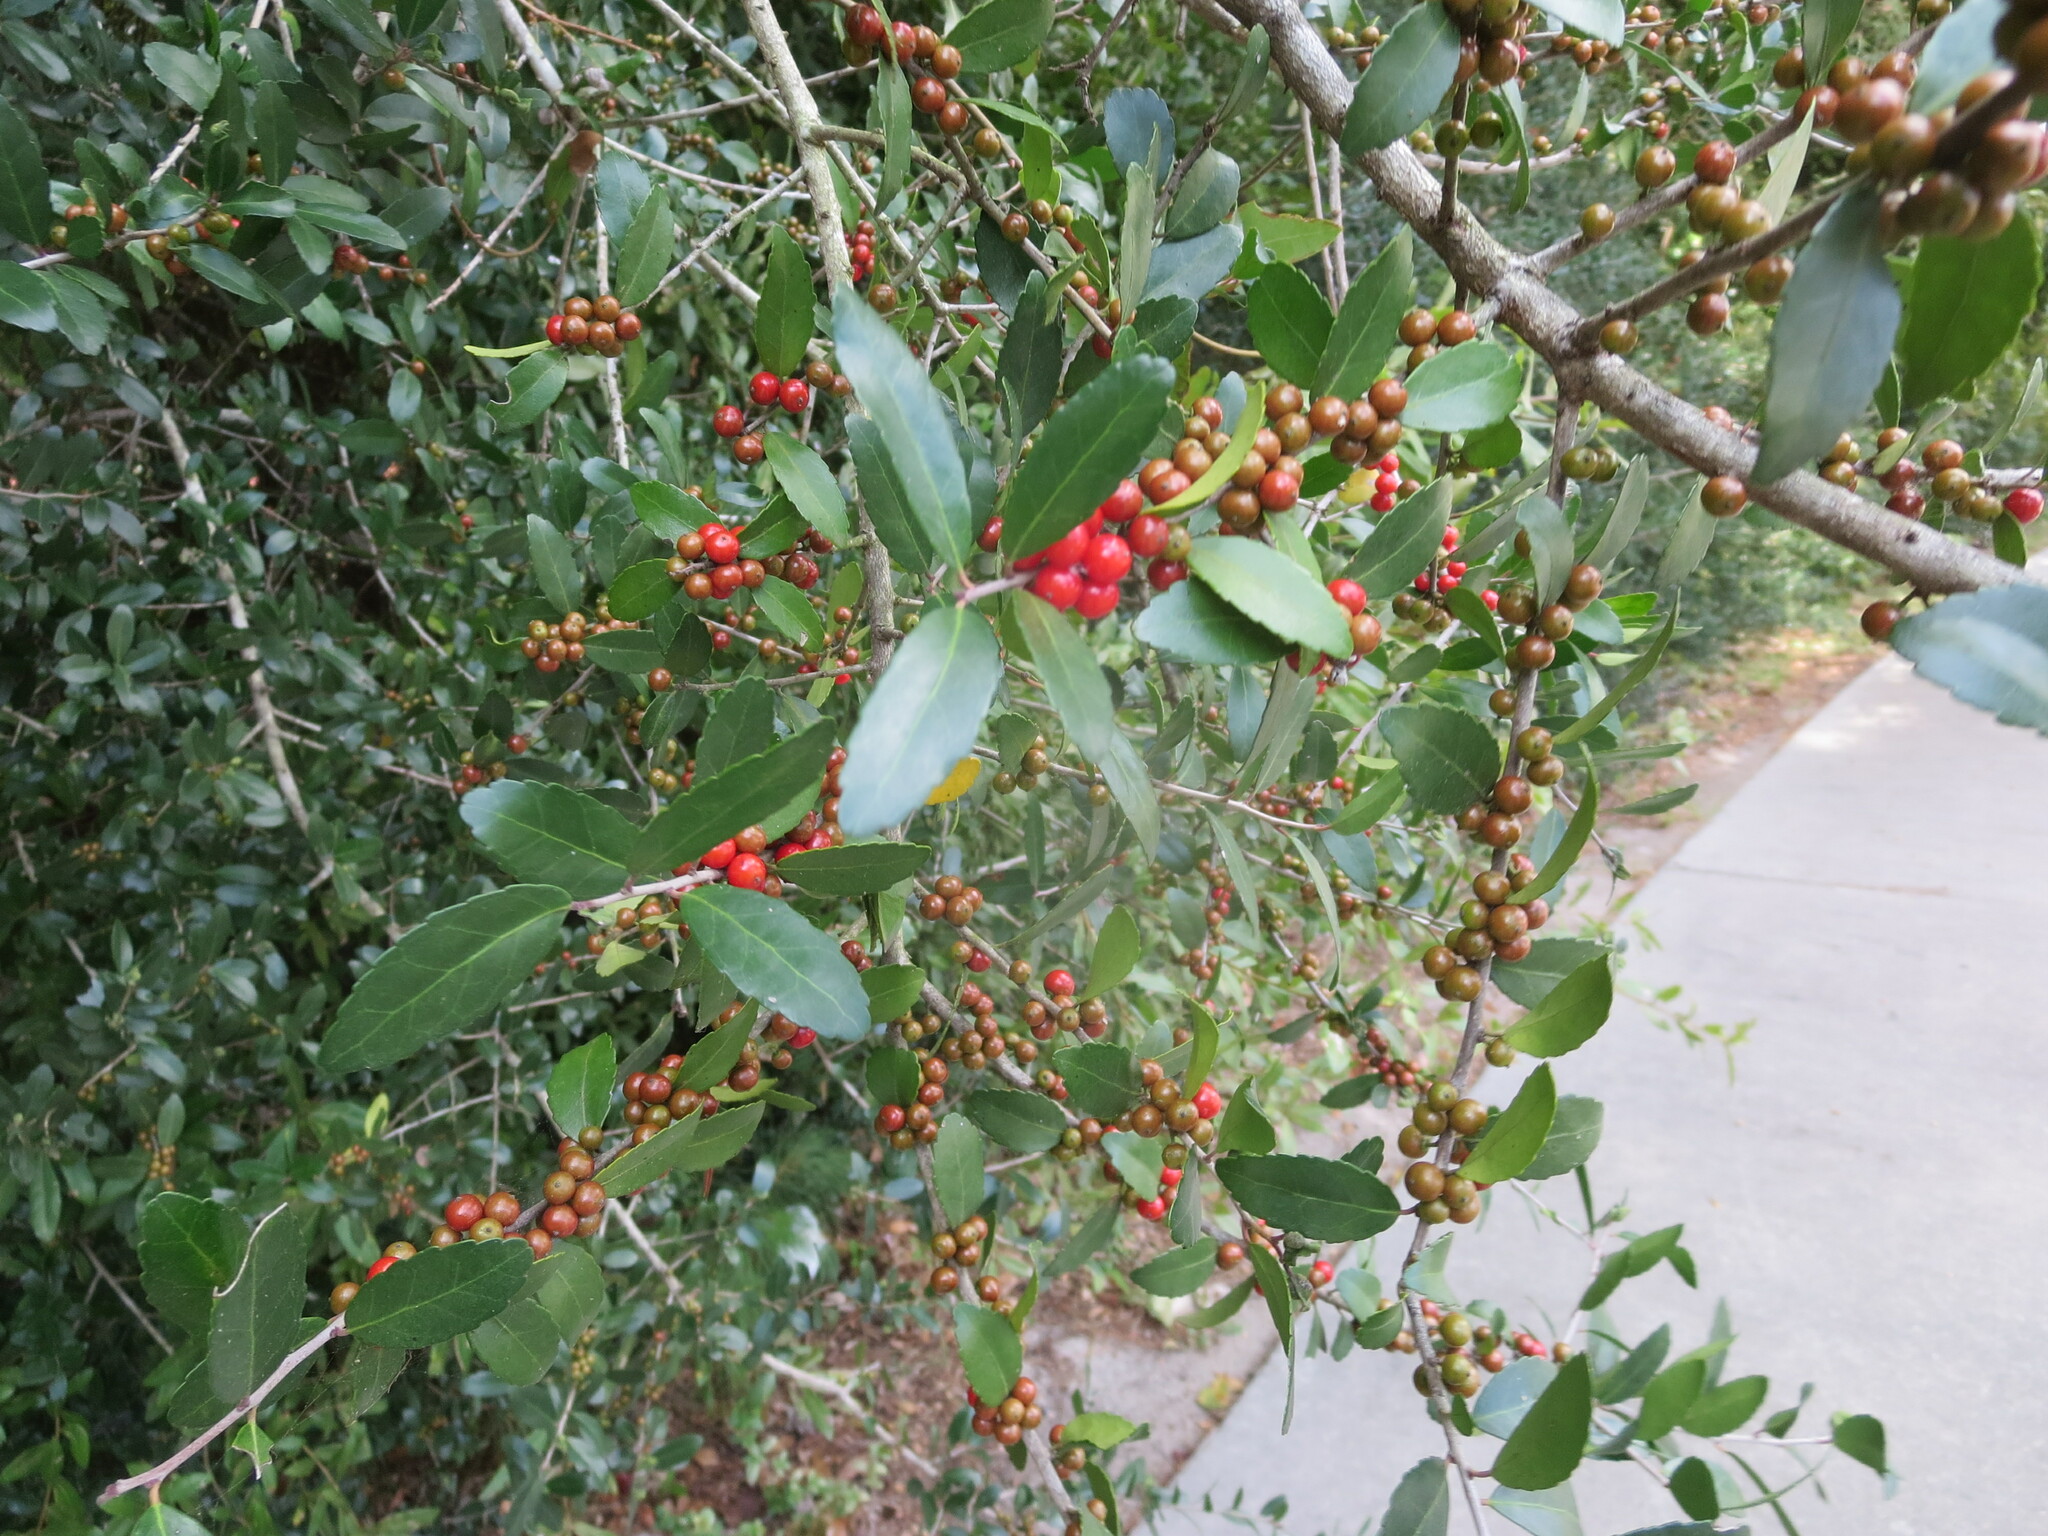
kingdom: Plantae
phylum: Tracheophyta
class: Magnoliopsida
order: Aquifoliales
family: Aquifoliaceae
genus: Ilex
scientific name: Ilex vomitoria
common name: Yaupon holly
